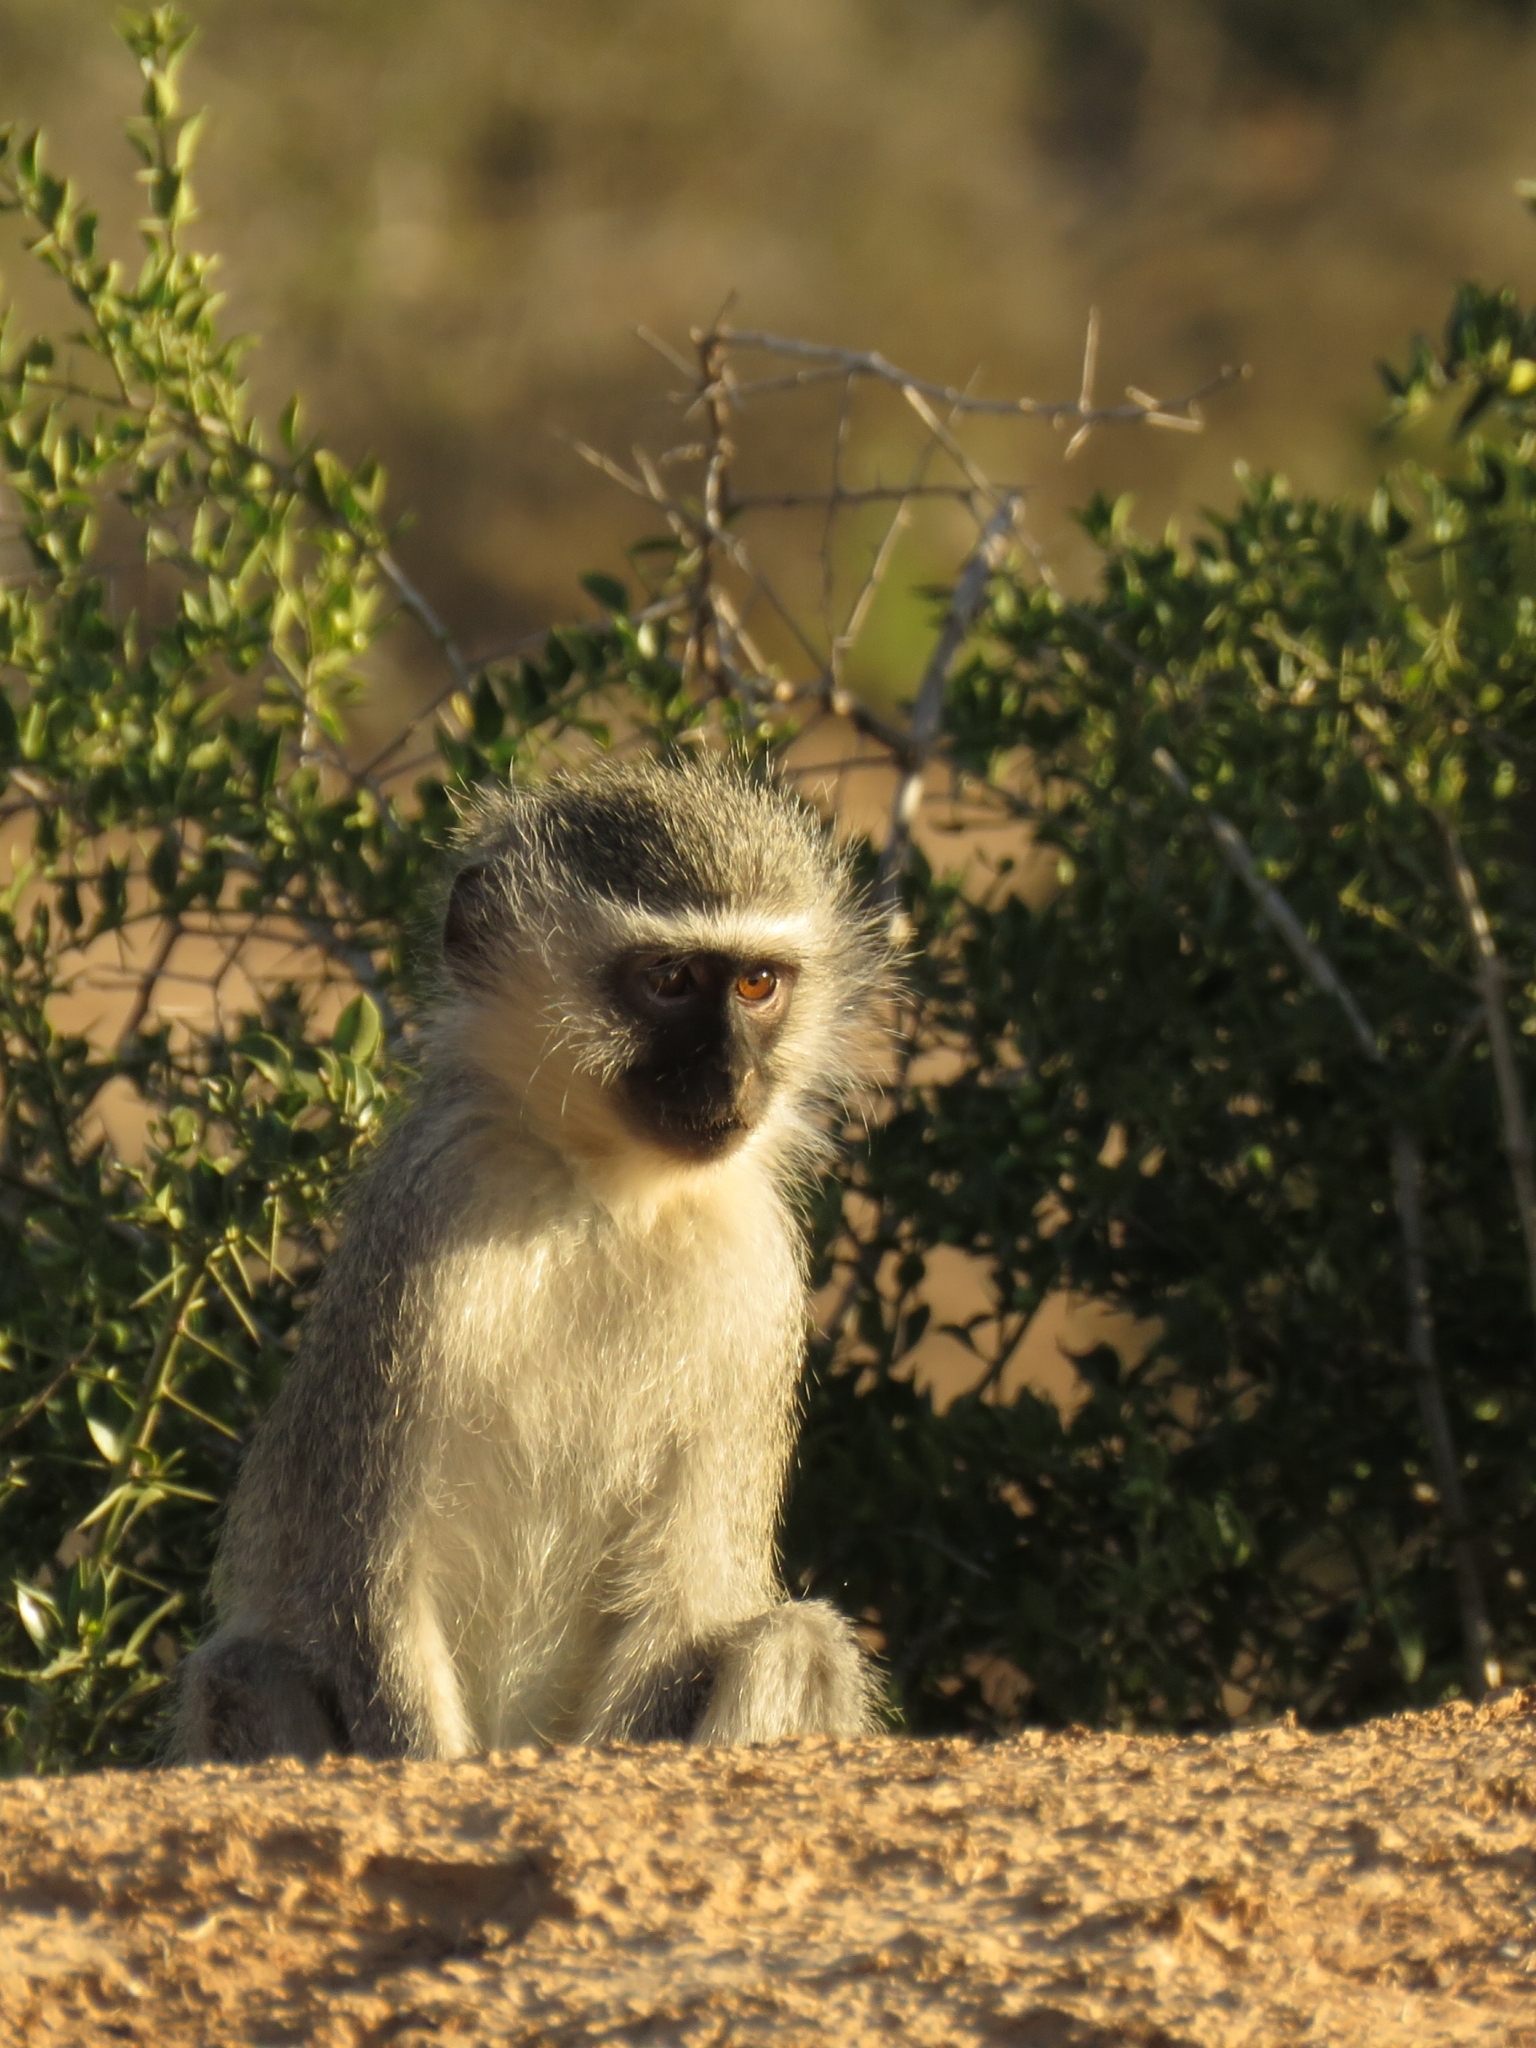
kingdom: Animalia
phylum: Chordata
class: Mammalia
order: Primates
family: Cercopithecidae
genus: Chlorocebus
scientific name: Chlorocebus pygerythrus
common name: Vervet monkey
